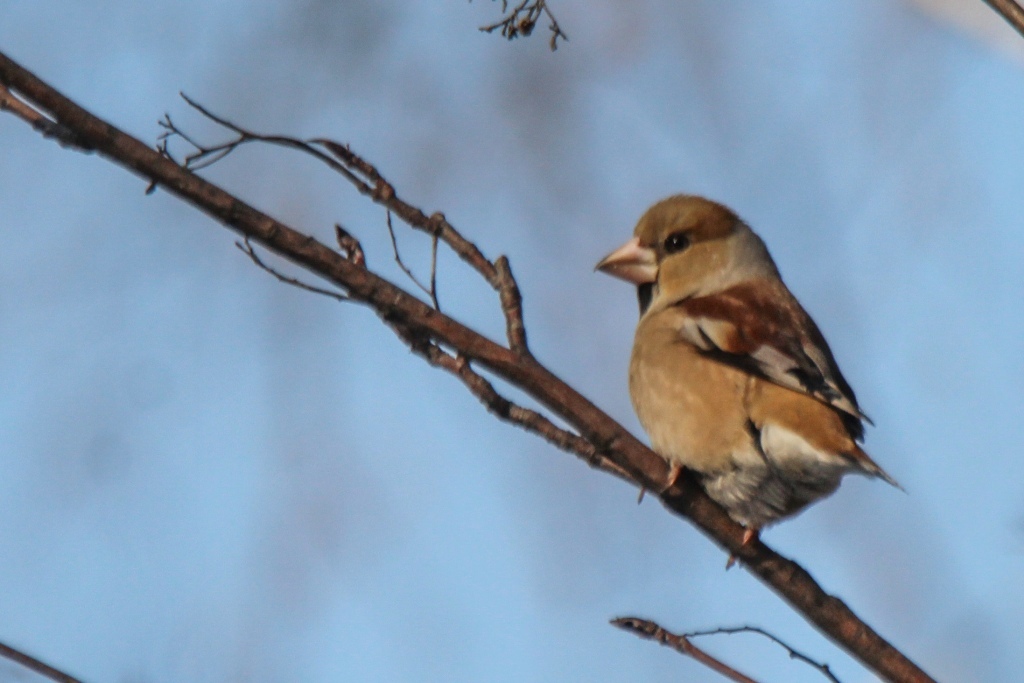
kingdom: Animalia
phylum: Chordata
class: Aves
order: Passeriformes
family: Fringillidae
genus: Coccothraustes
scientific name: Coccothraustes coccothraustes
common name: Hawfinch
